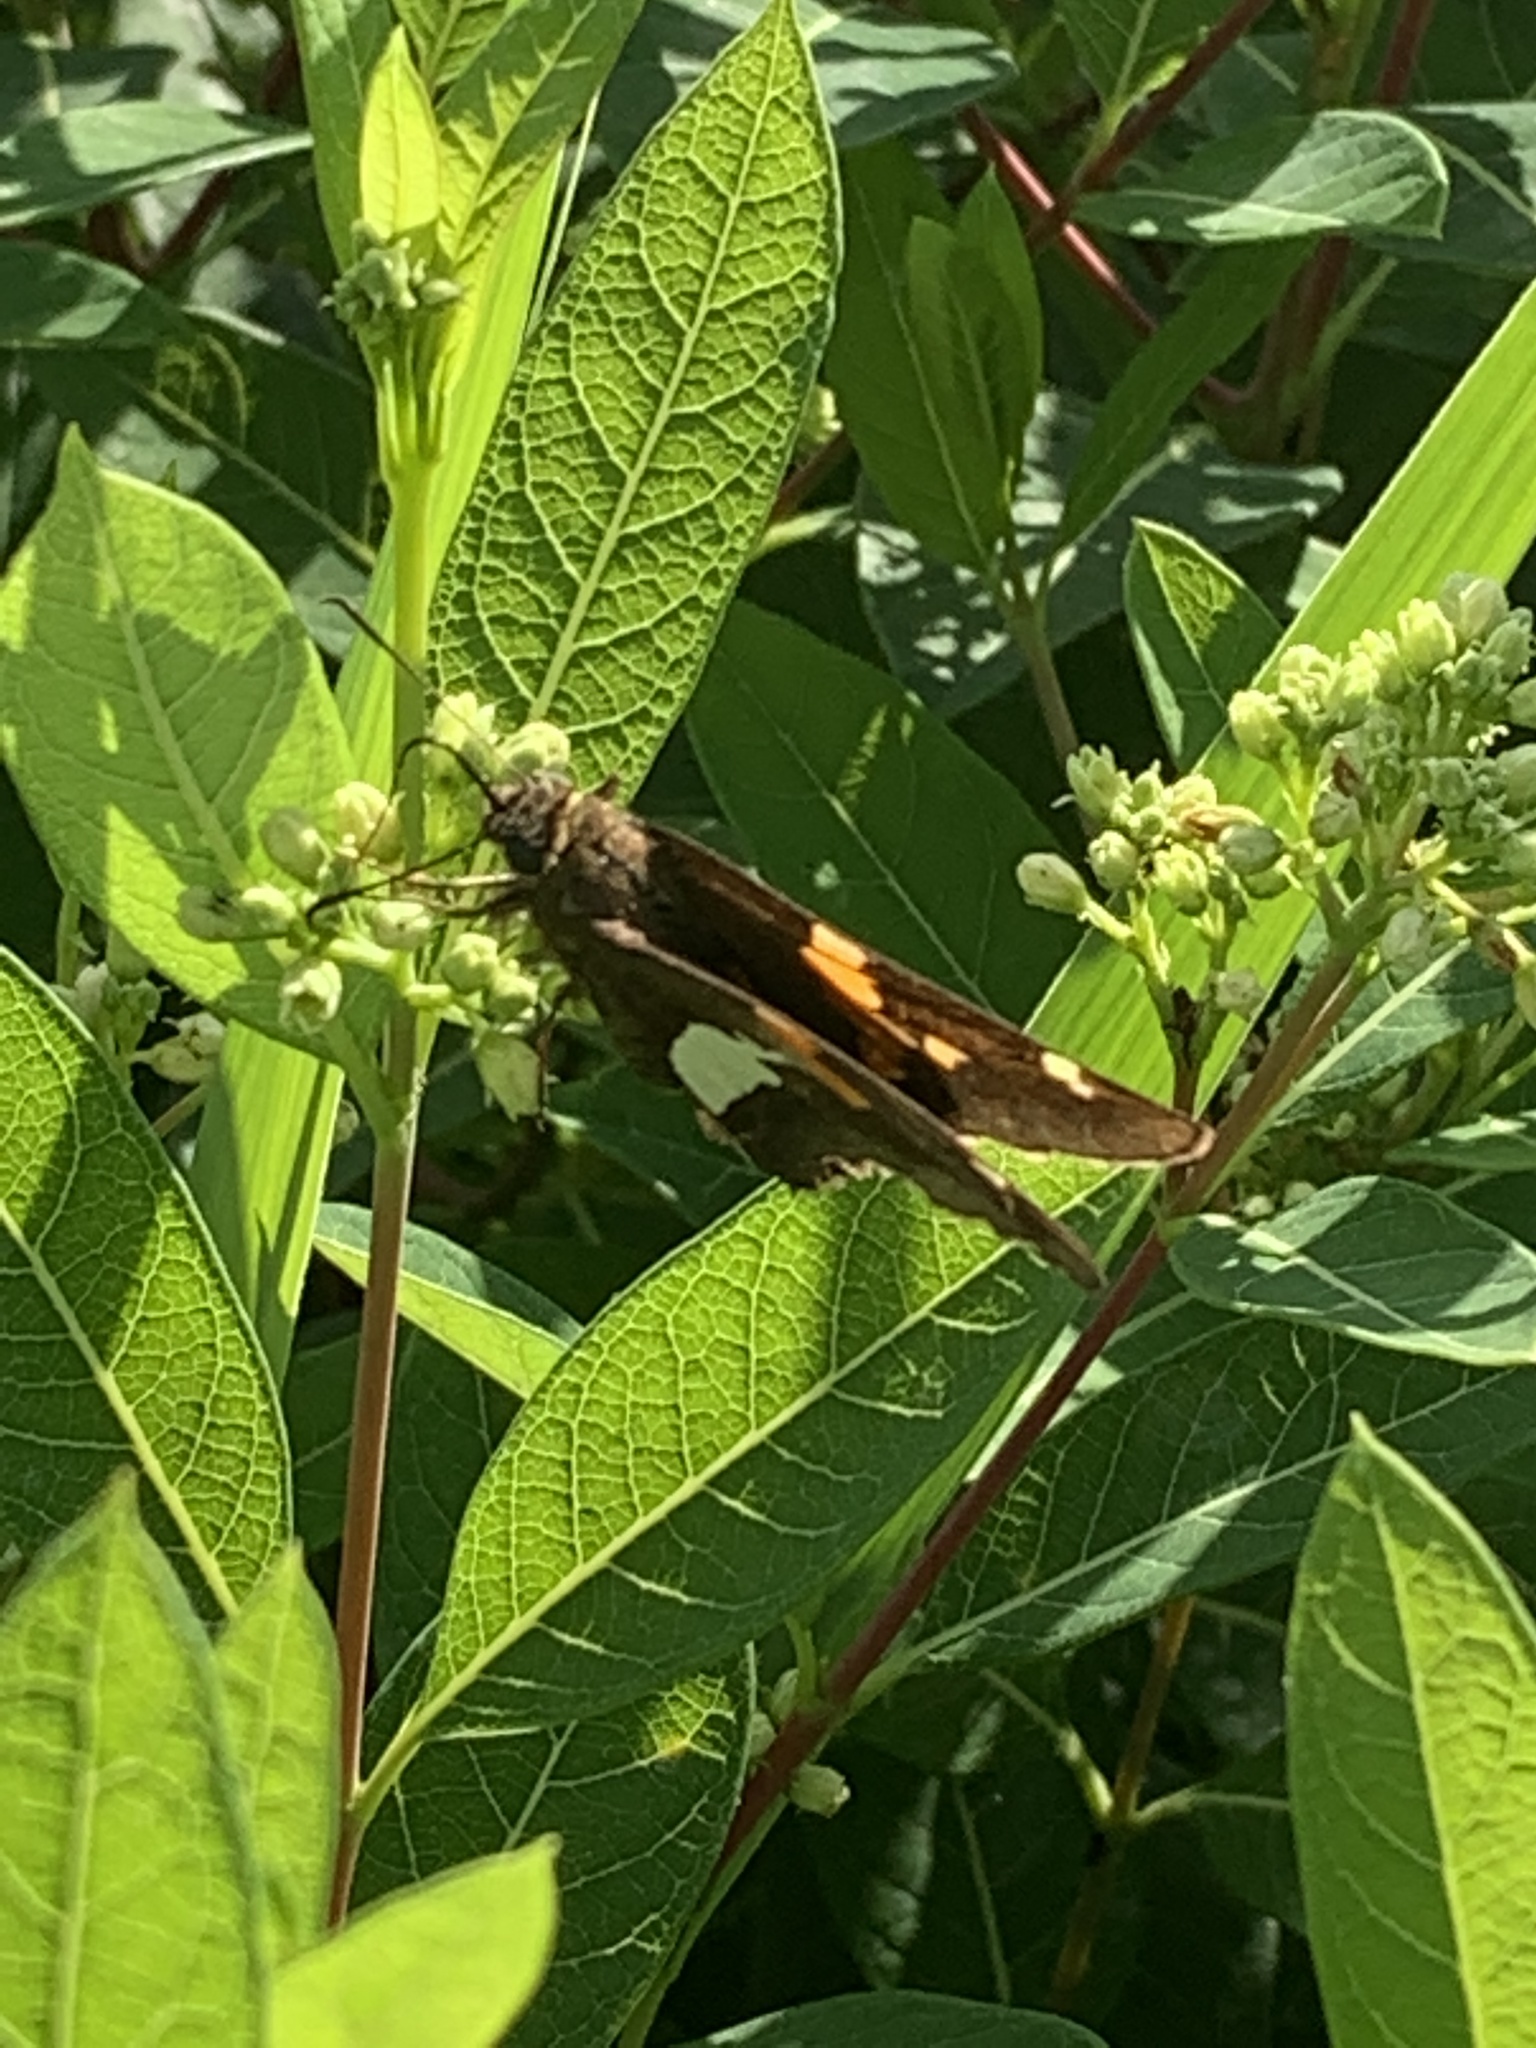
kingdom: Animalia
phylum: Arthropoda
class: Insecta
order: Lepidoptera
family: Hesperiidae
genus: Epargyreus
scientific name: Epargyreus clarus
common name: Silver-spotted skipper
